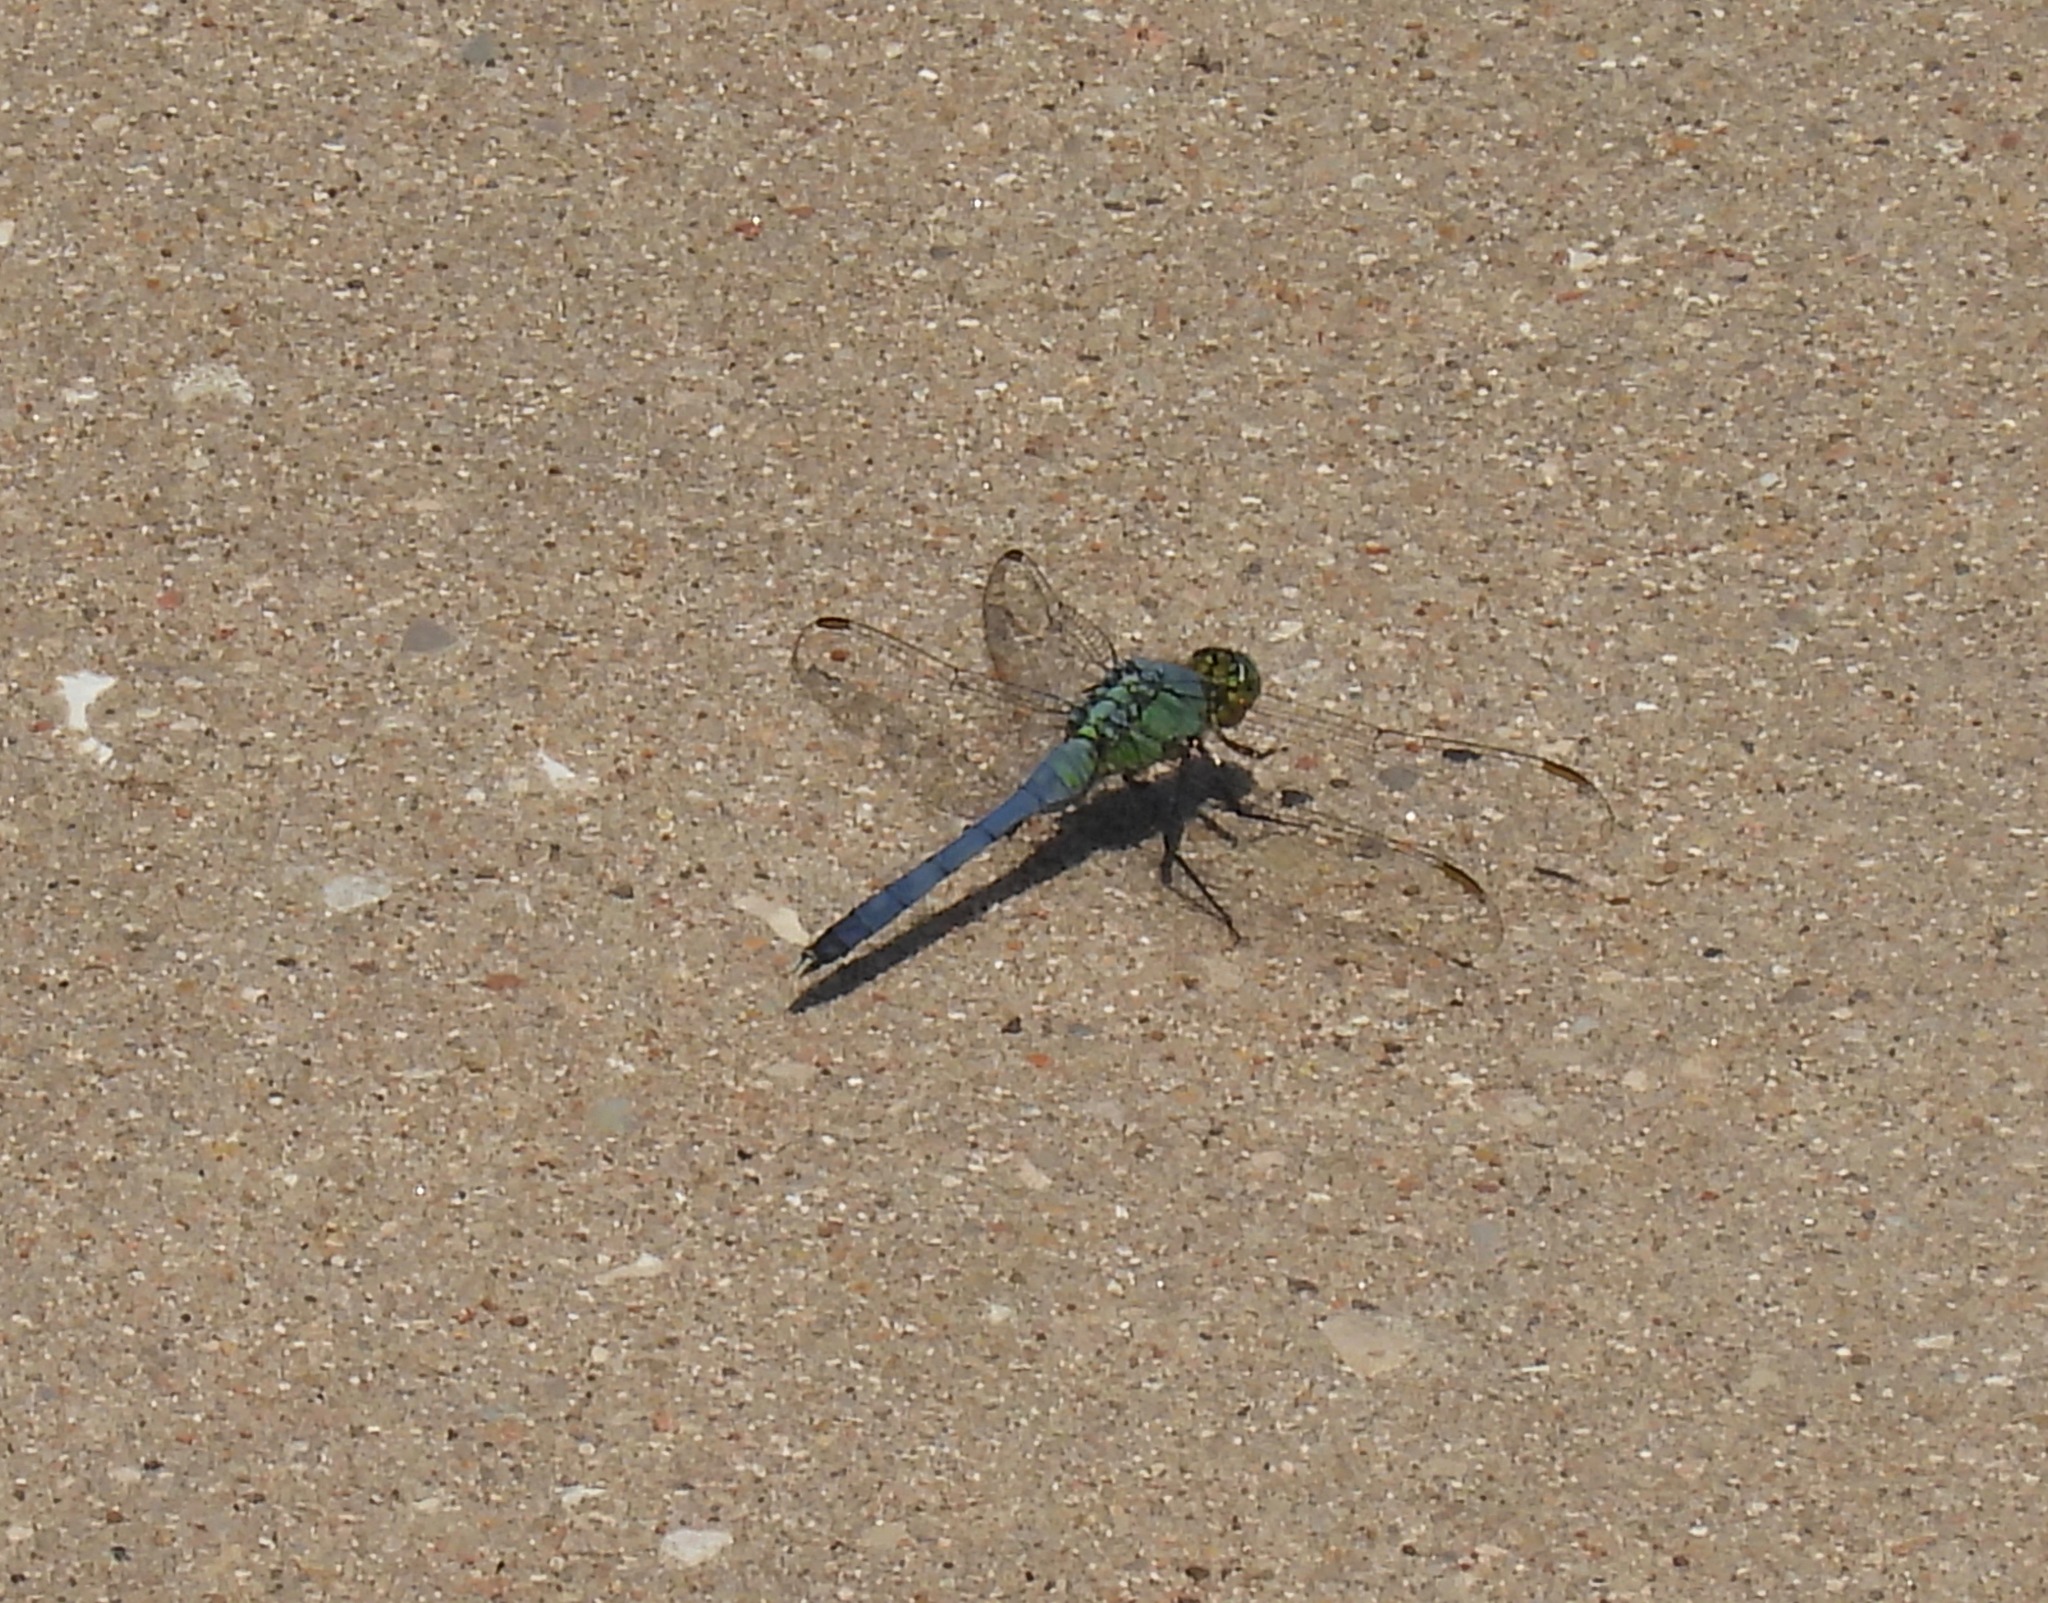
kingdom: Animalia
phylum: Arthropoda
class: Insecta
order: Odonata
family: Libellulidae
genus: Erythemis
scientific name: Erythemis simplicicollis
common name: Eastern pondhawk
